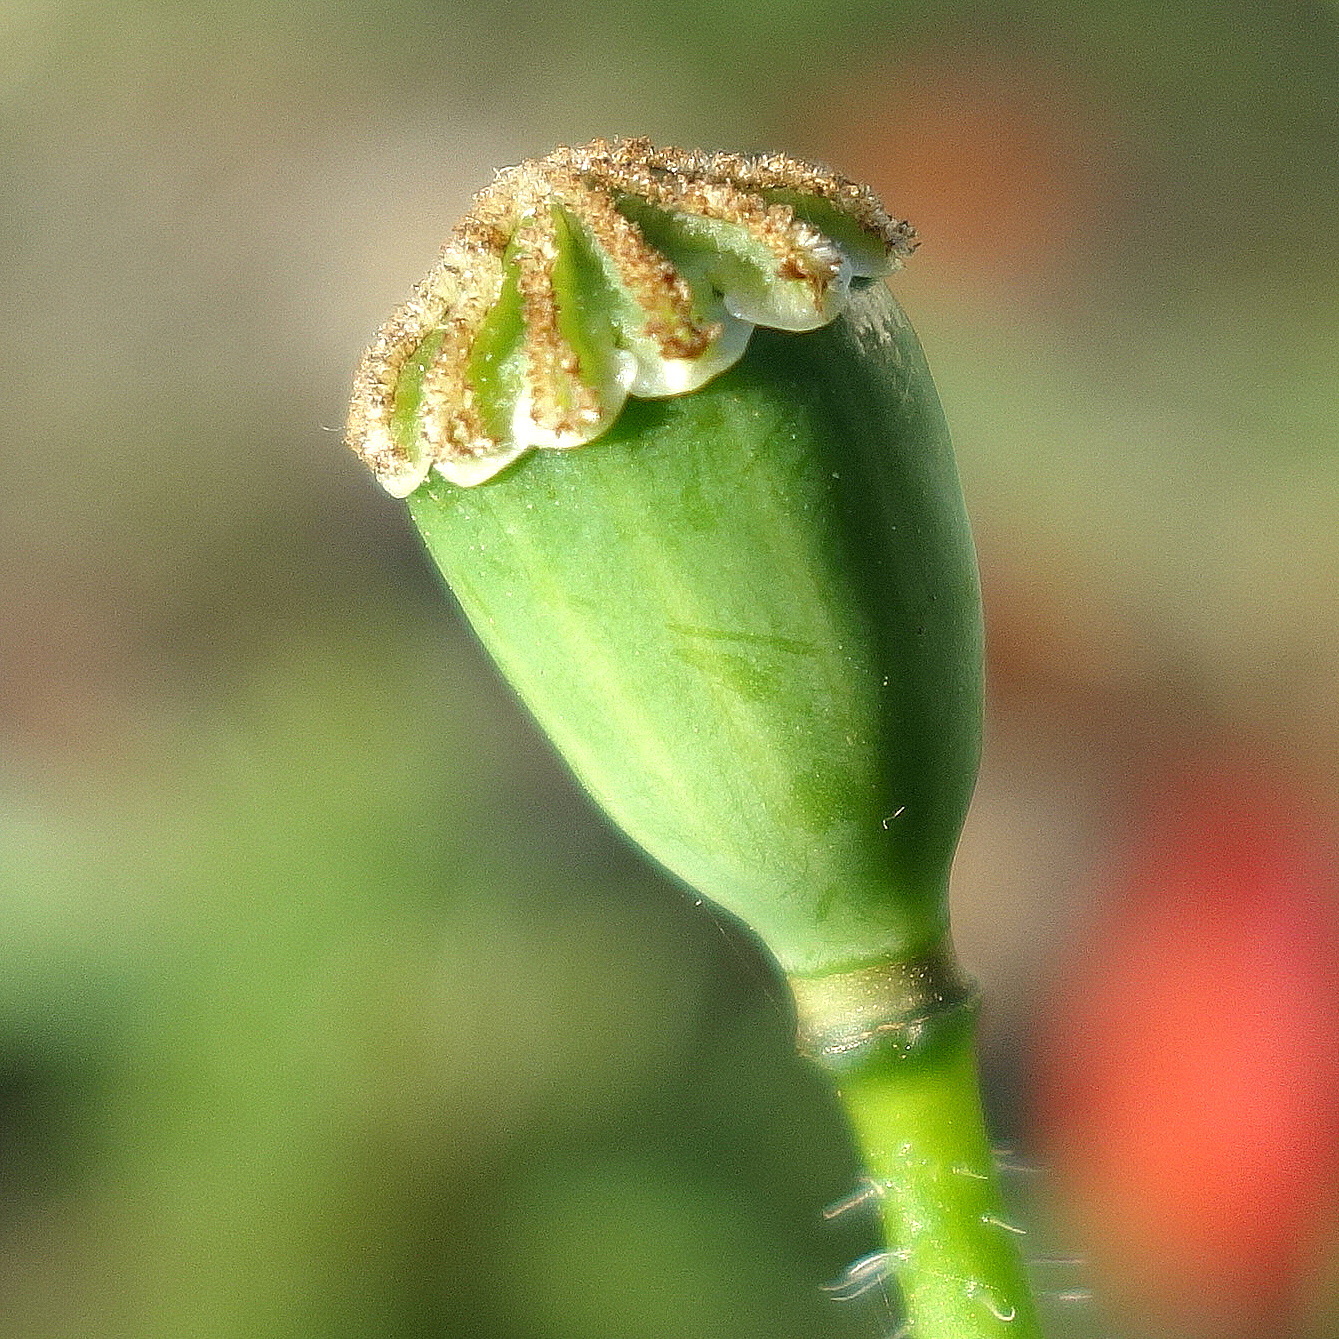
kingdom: Plantae
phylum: Tracheophyta
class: Magnoliopsida
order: Ranunculales
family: Papaveraceae
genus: Papaver
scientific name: Papaver rhoeas
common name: Corn poppy
